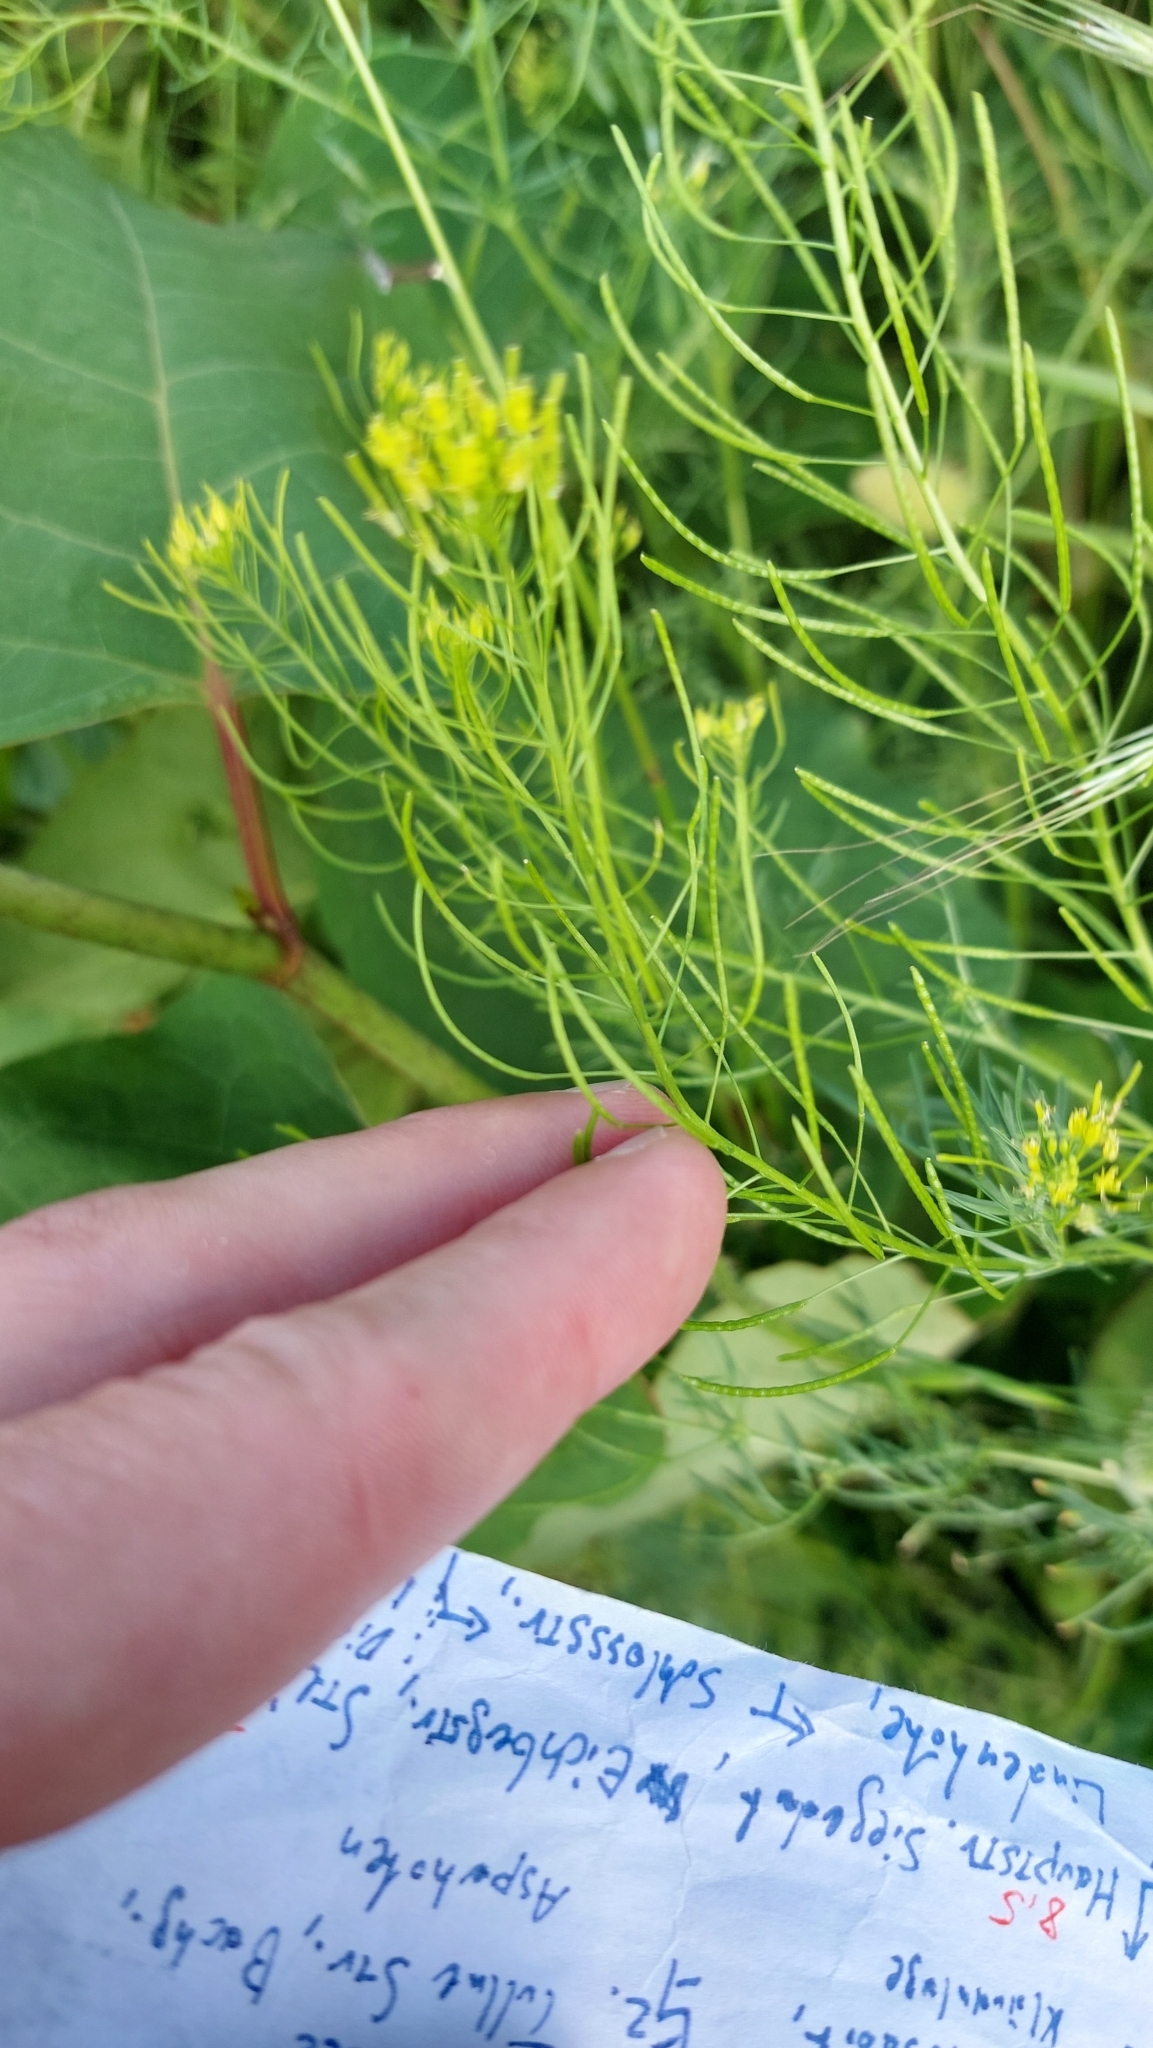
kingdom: Plantae
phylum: Tracheophyta
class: Magnoliopsida
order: Brassicales
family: Brassicaceae
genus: Descurainia
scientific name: Descurainia sophia
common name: Flixweed
